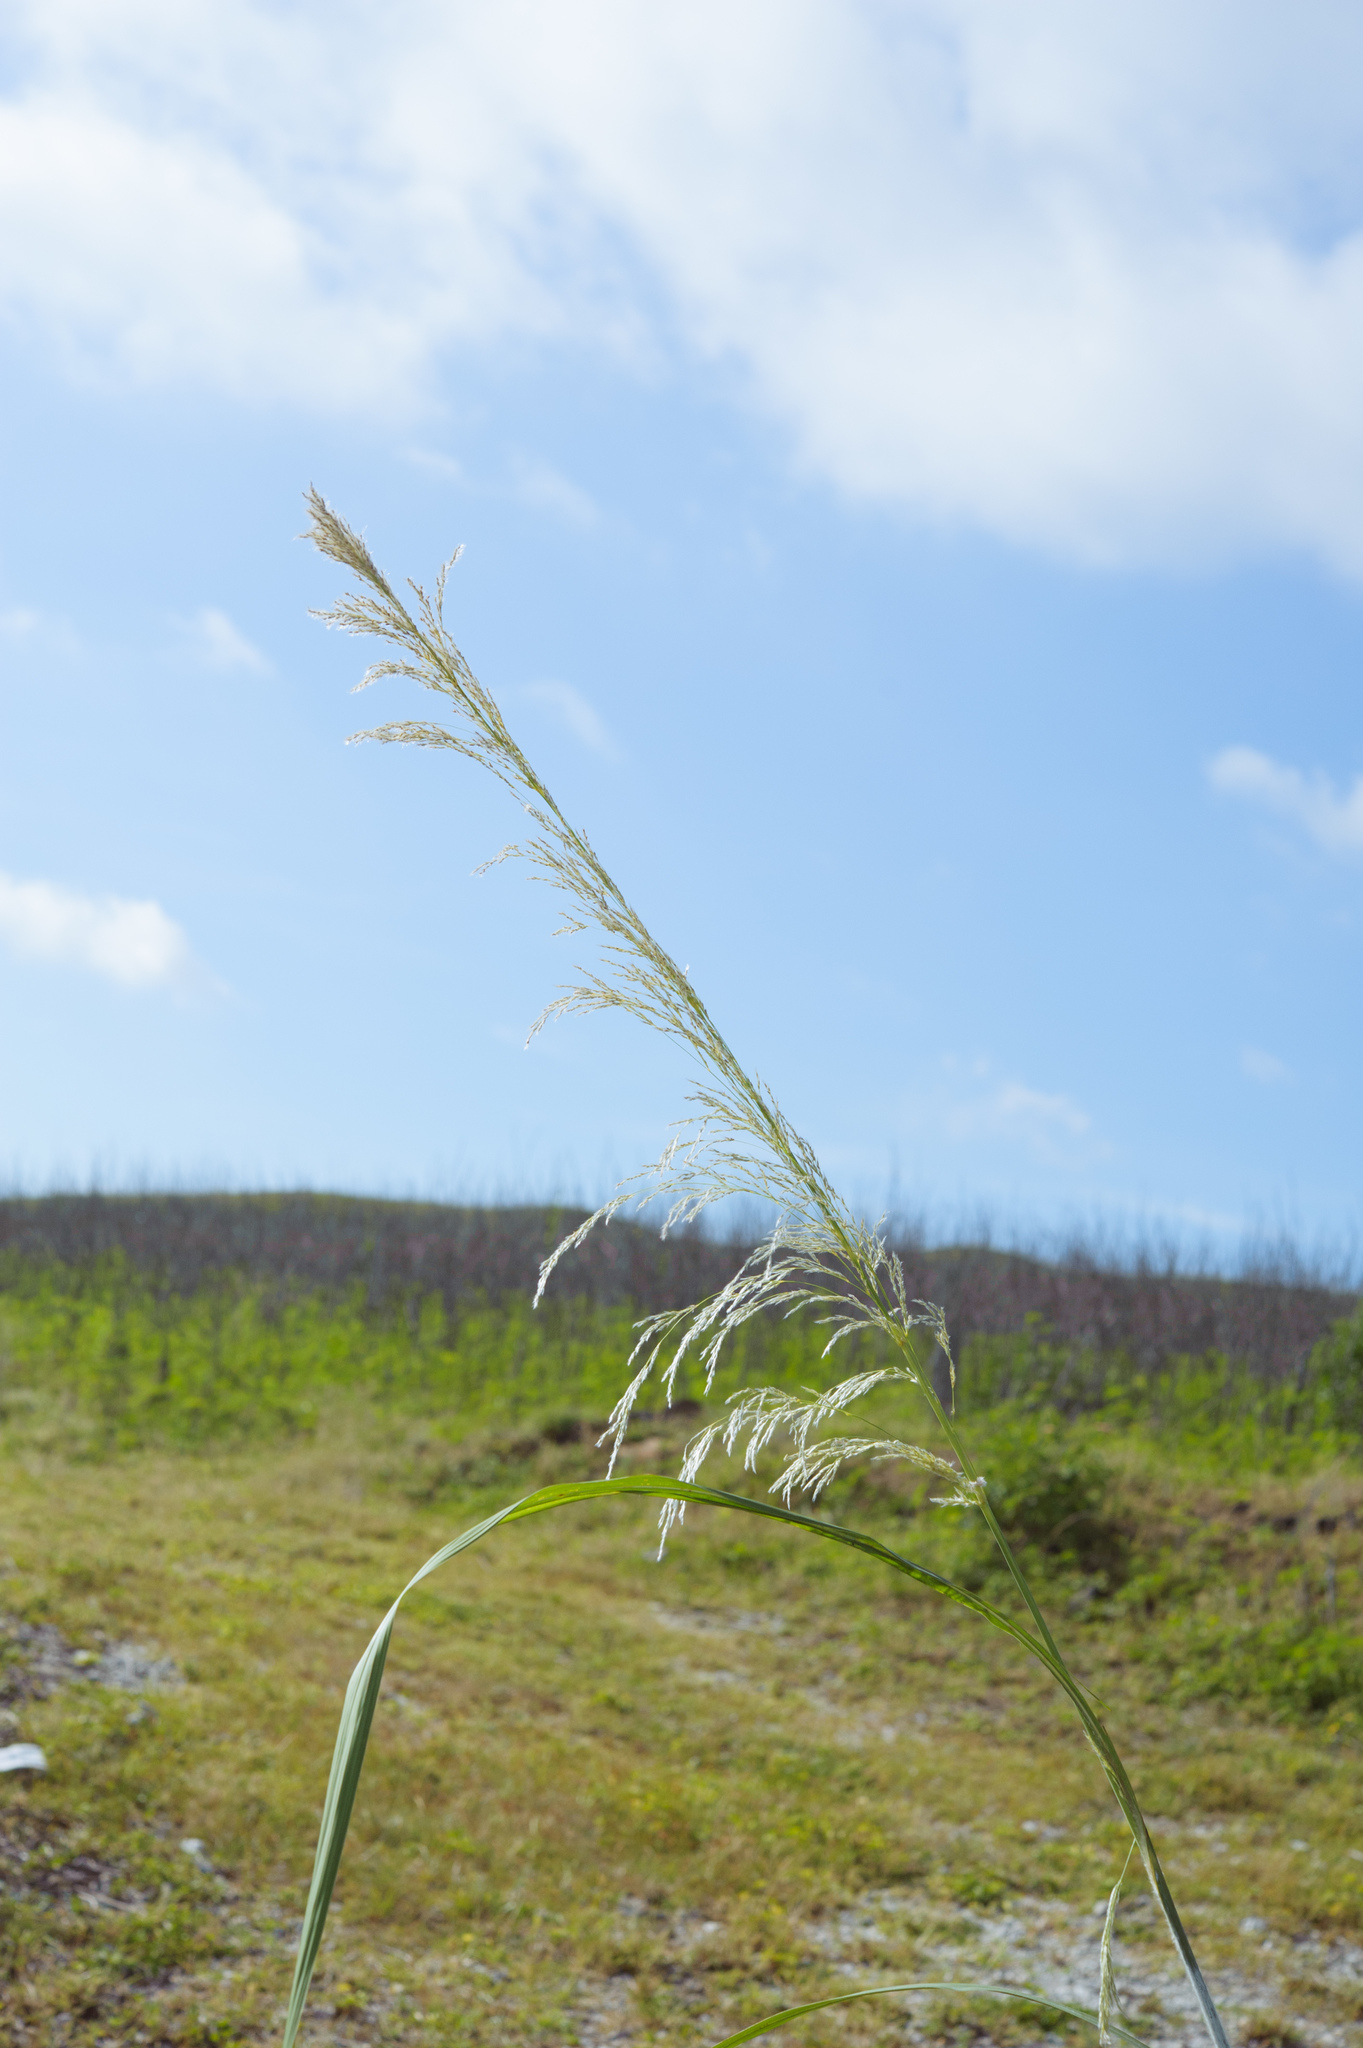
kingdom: Plantae
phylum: Tracheophyta
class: Liliopsida
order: Poales
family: Poaceae
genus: Saccharum
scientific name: Saccharum spontaneum
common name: Wild sugarcane
